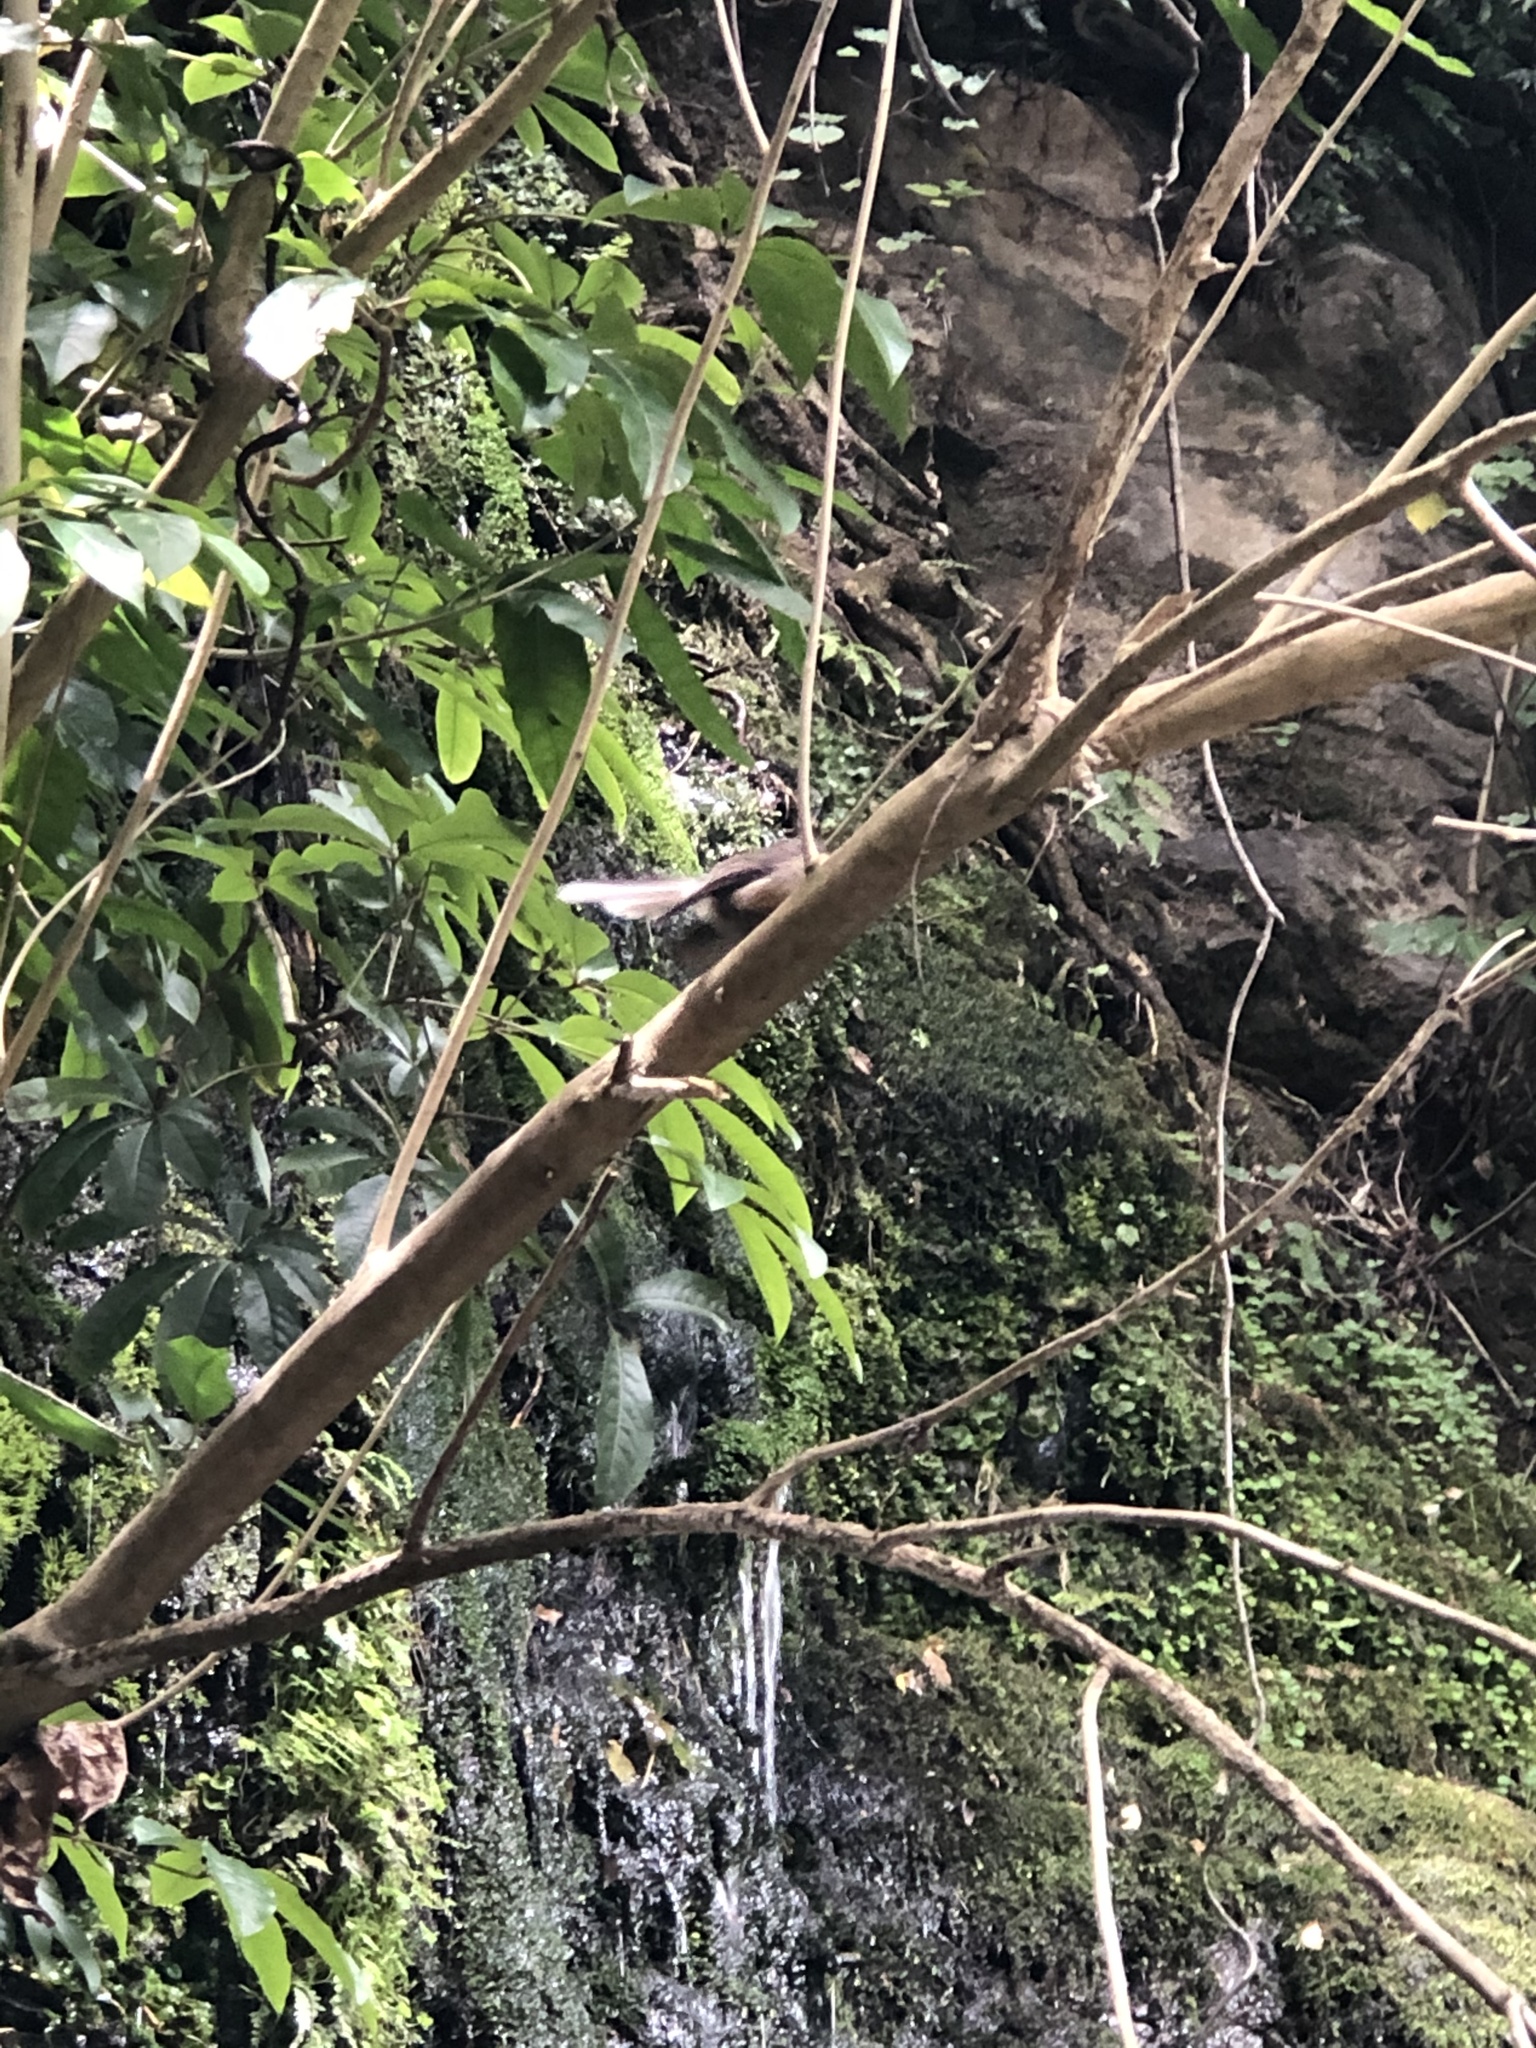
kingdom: Animalia
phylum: Chordata
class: Aves
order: Passeriformes
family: Rhipiduridae
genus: Rhipidura
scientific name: Rhipidura fuliginosa
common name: New zealand fantail
